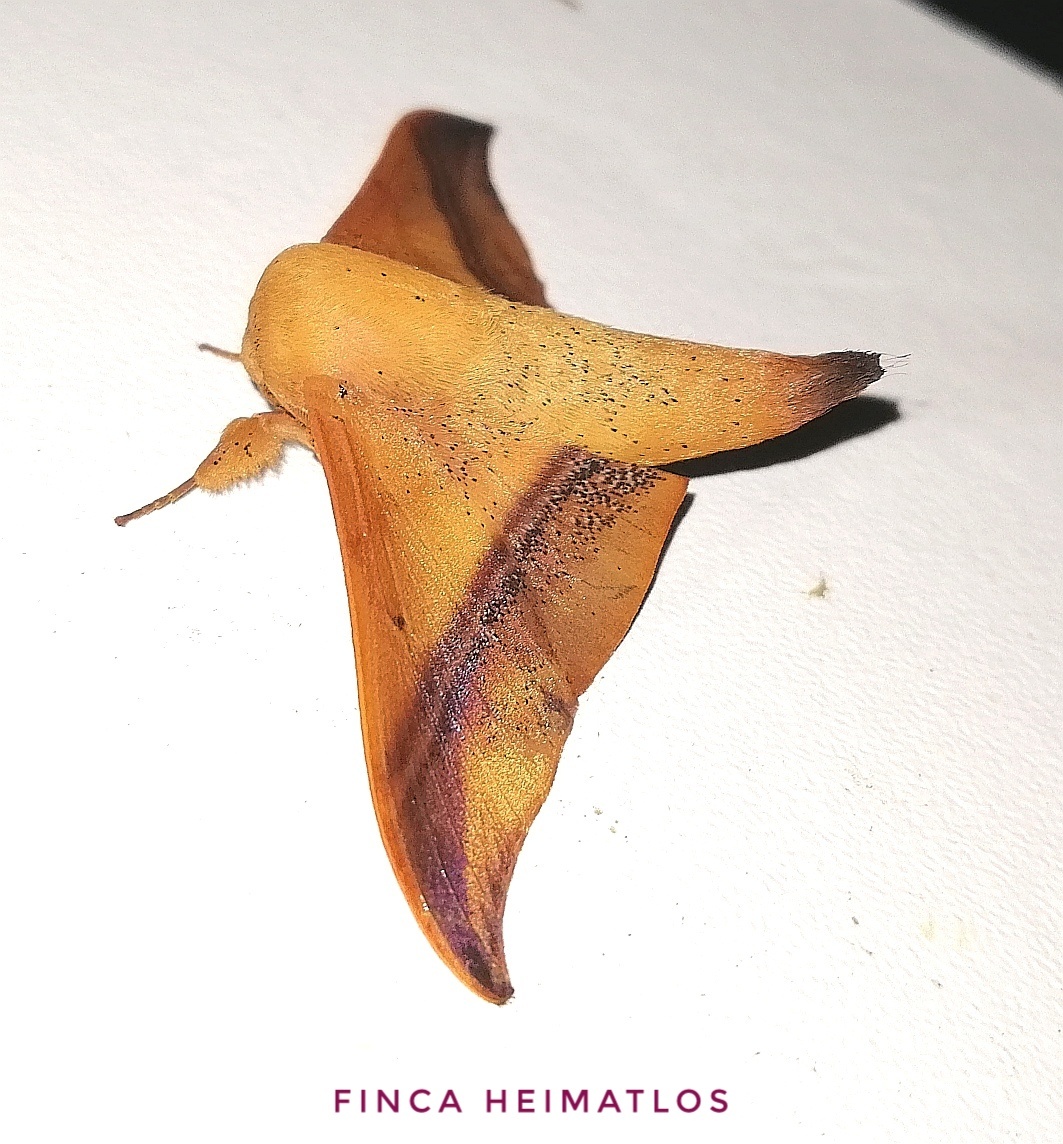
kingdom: Animalia
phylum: Arthropoda
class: Insecta
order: Lepidoptera
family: Mimallonidae
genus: Cicinnus
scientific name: Cicinnus joanna
